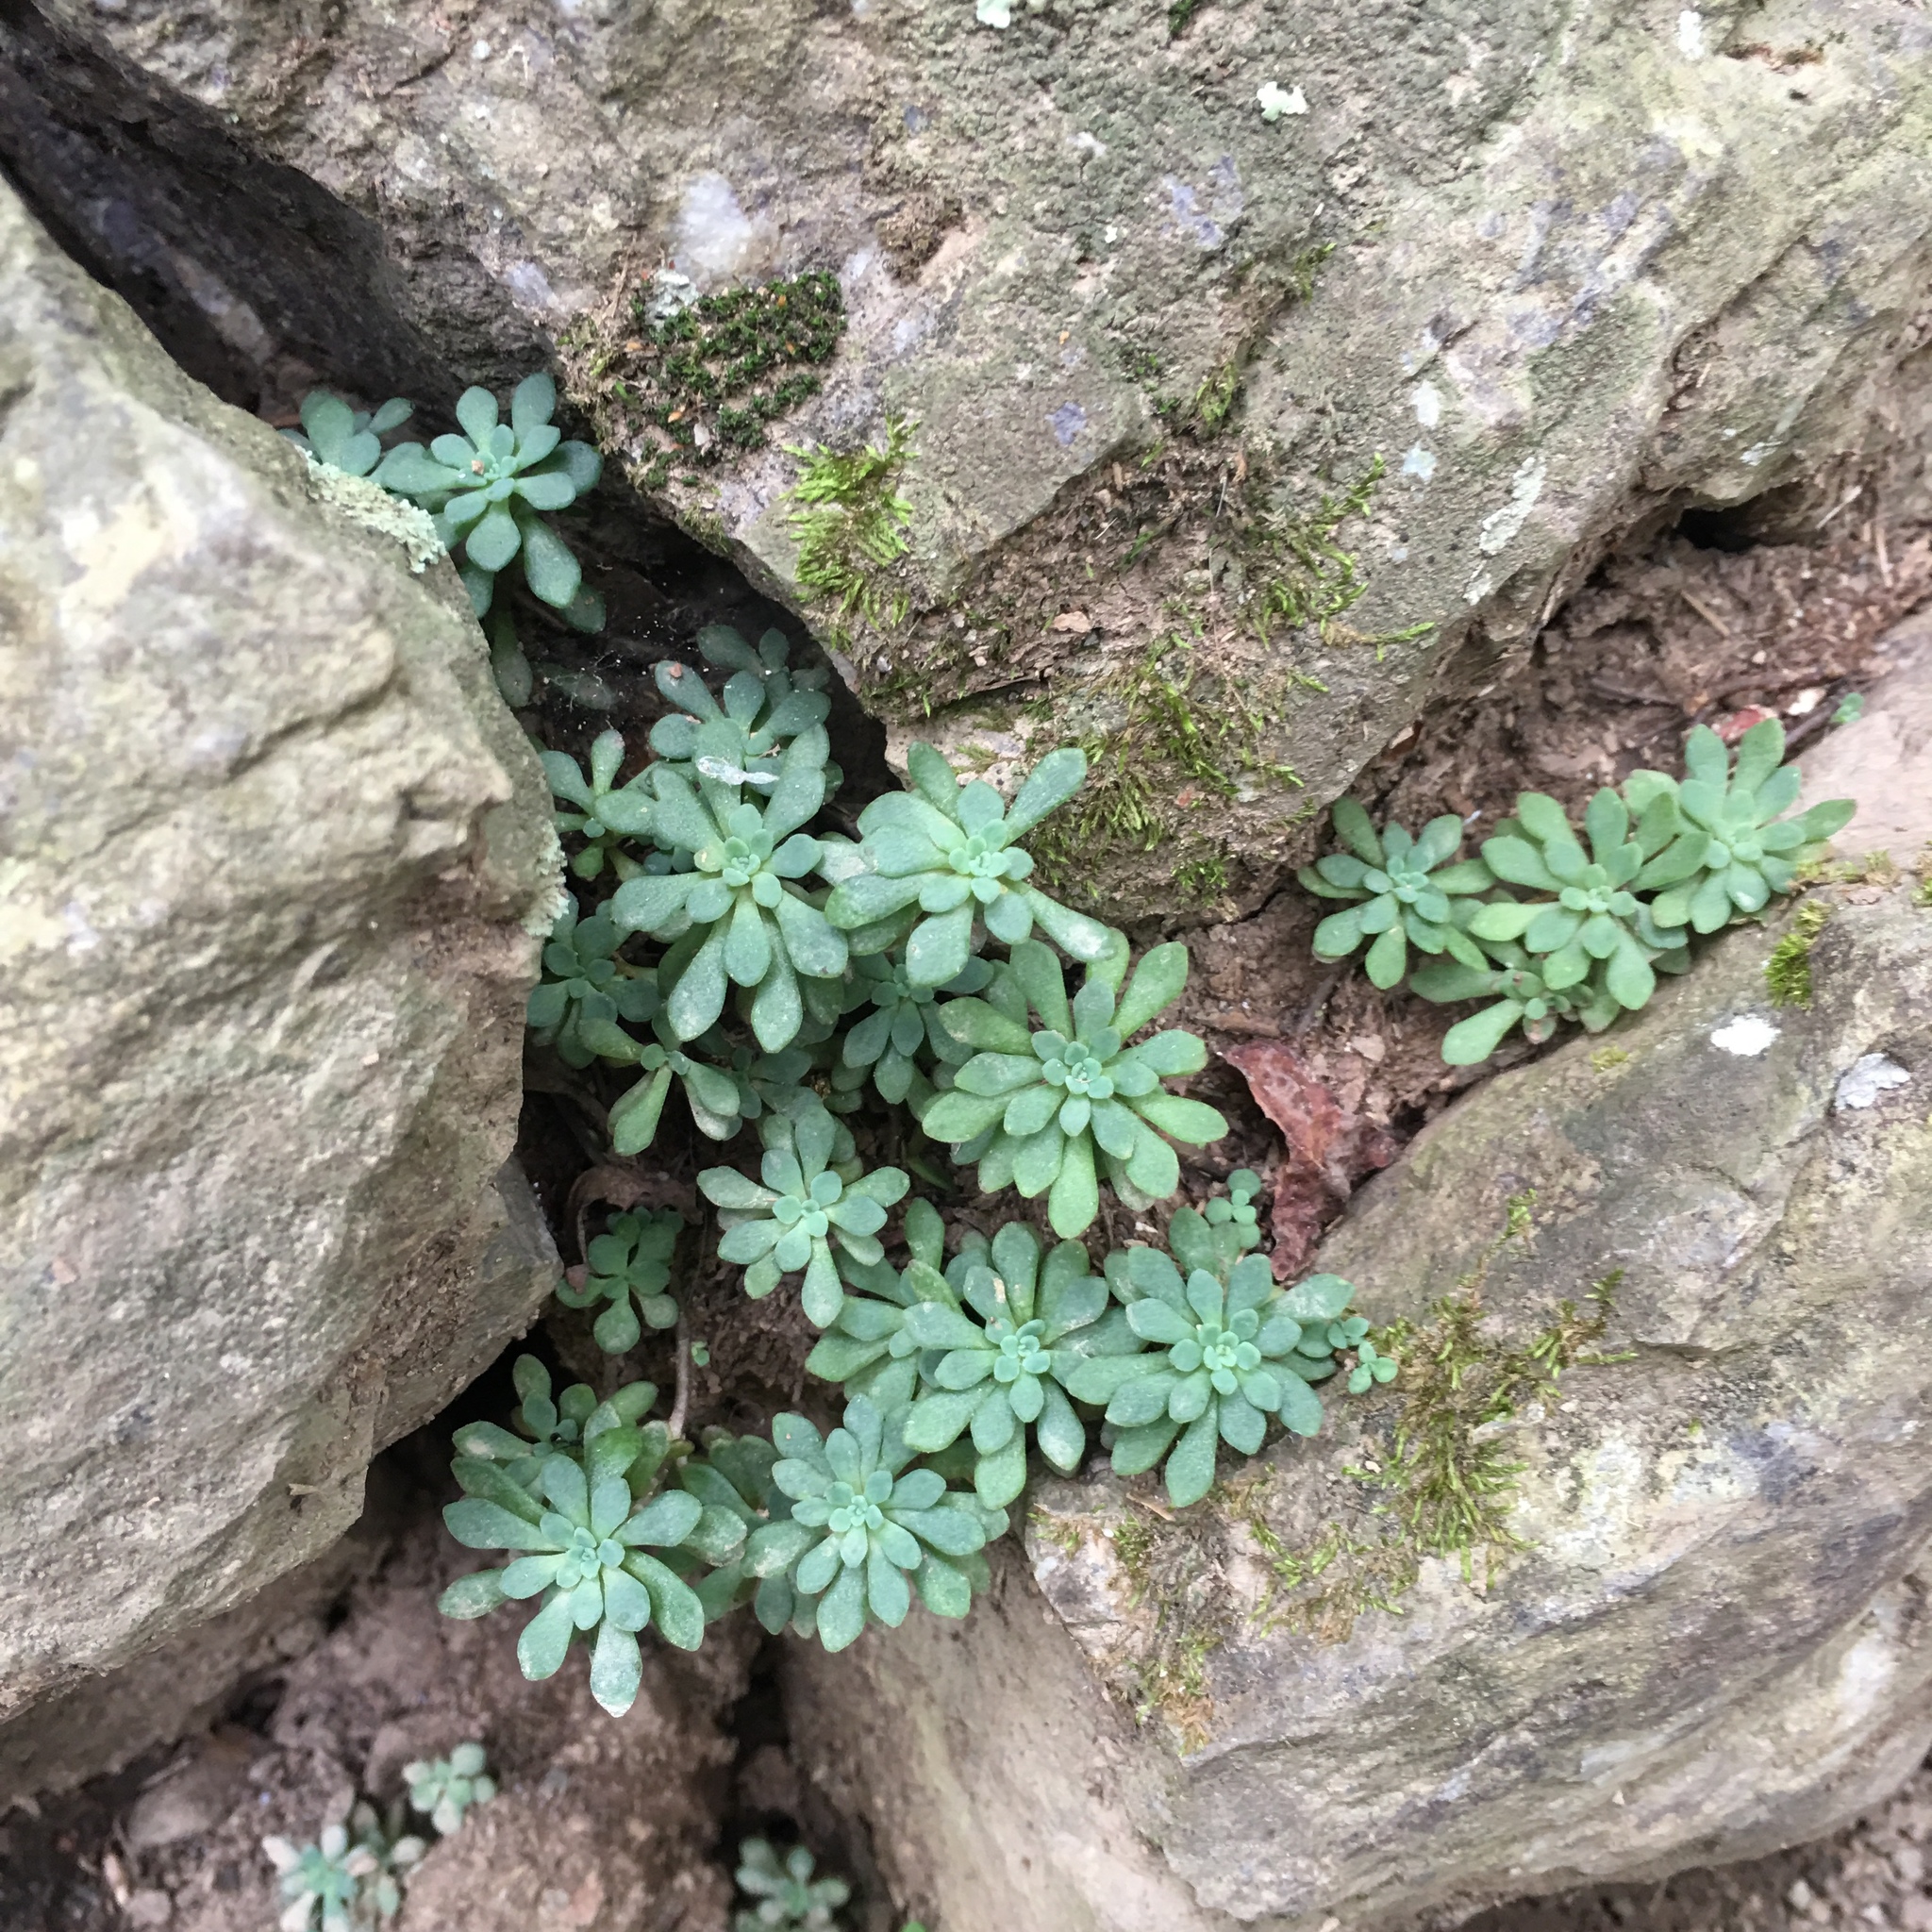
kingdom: Plantae
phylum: Tracheophyta
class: Magnoliopsida
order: Saxifragales
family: Crassulaceae
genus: Sedum
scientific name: Sedum glaucophyllum
